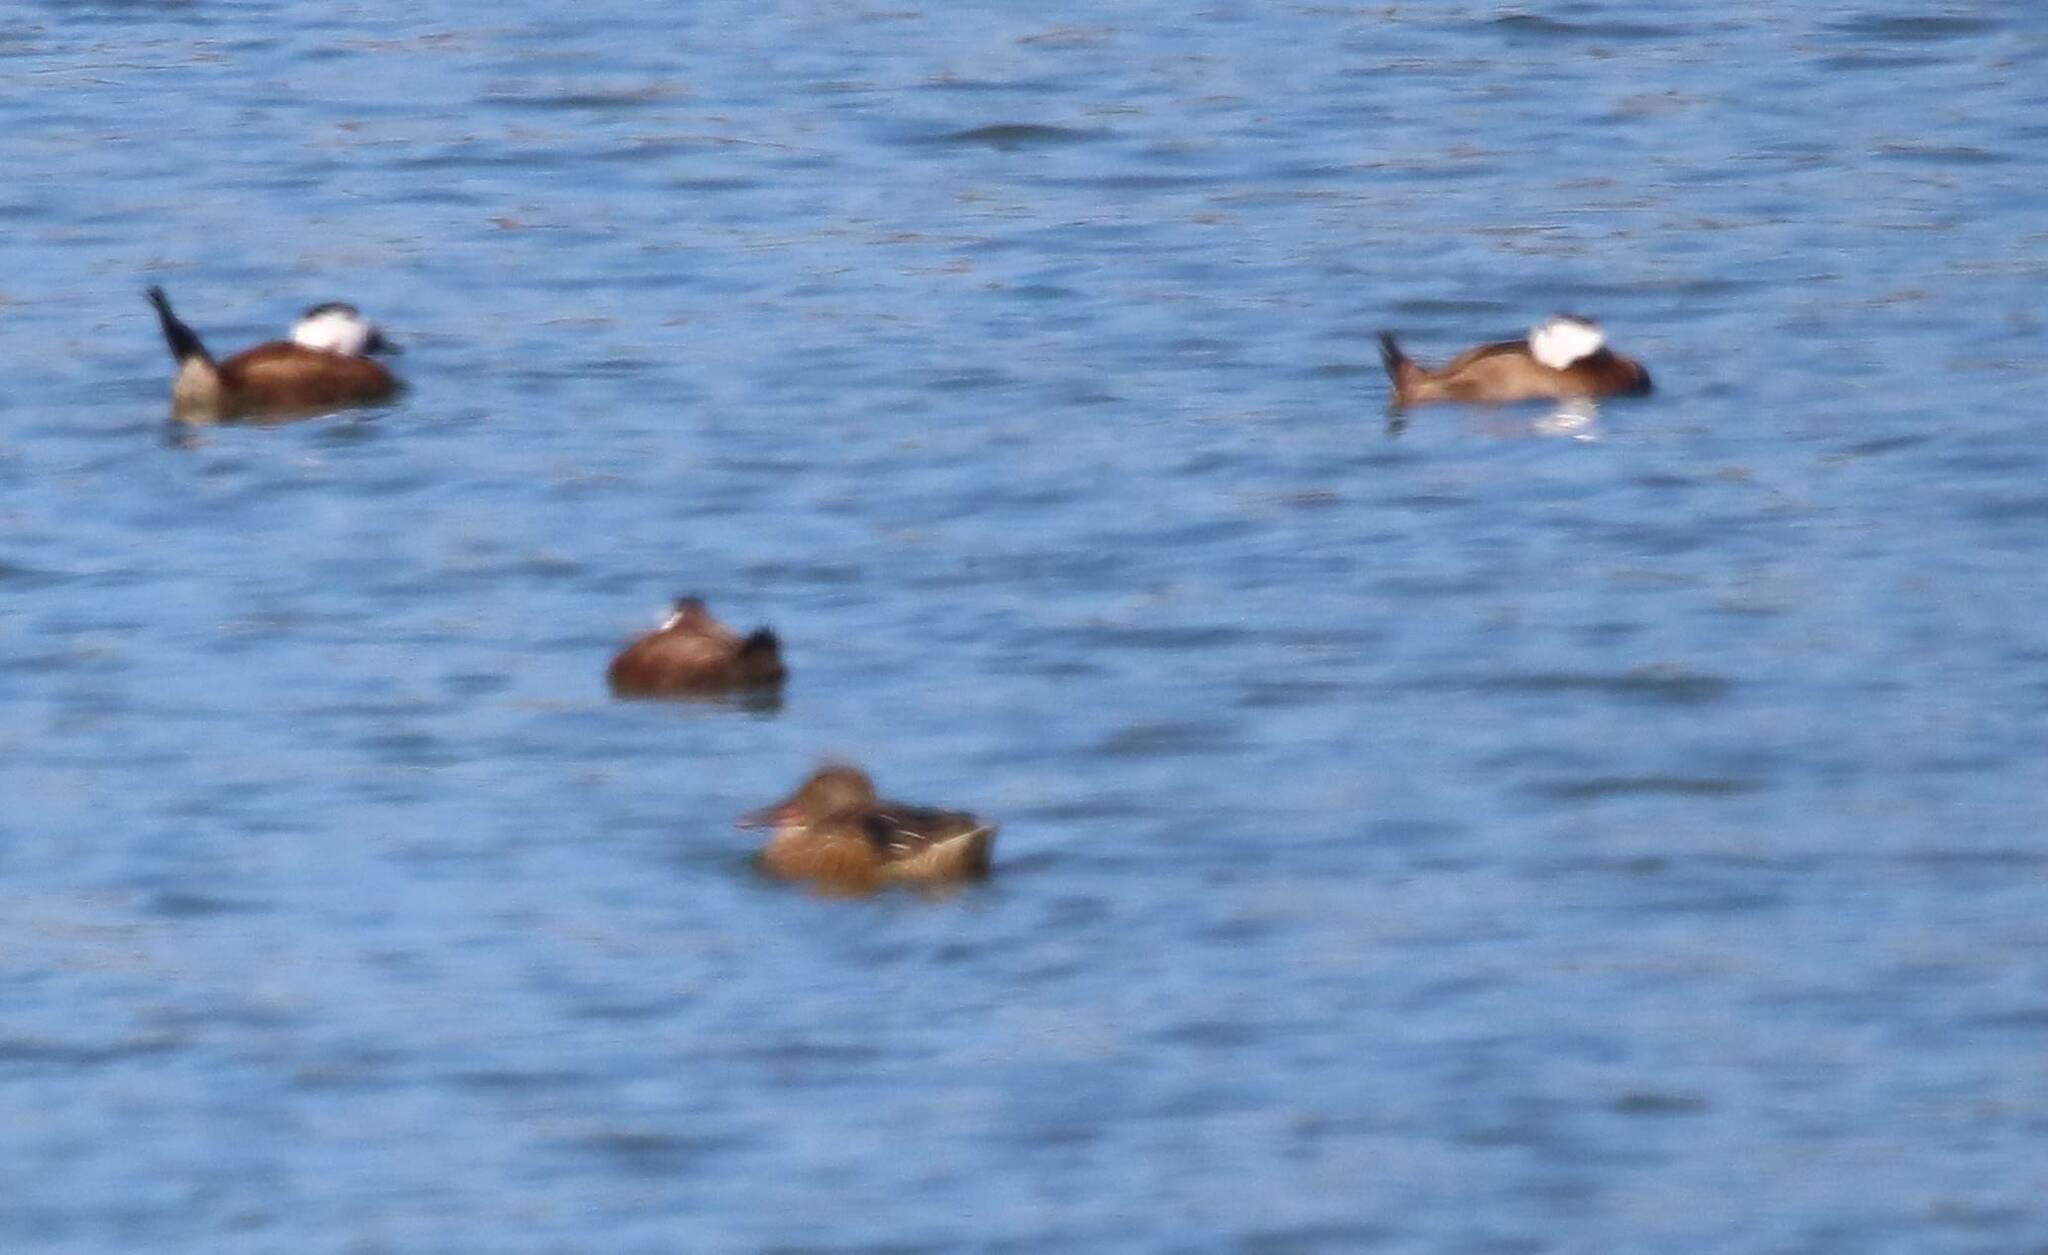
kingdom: Animalia
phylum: Chordata
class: Aves
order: Anseriformes
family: Anatidae
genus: Oxyura
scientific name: Oxyura leucocephala
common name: White-headed duck
